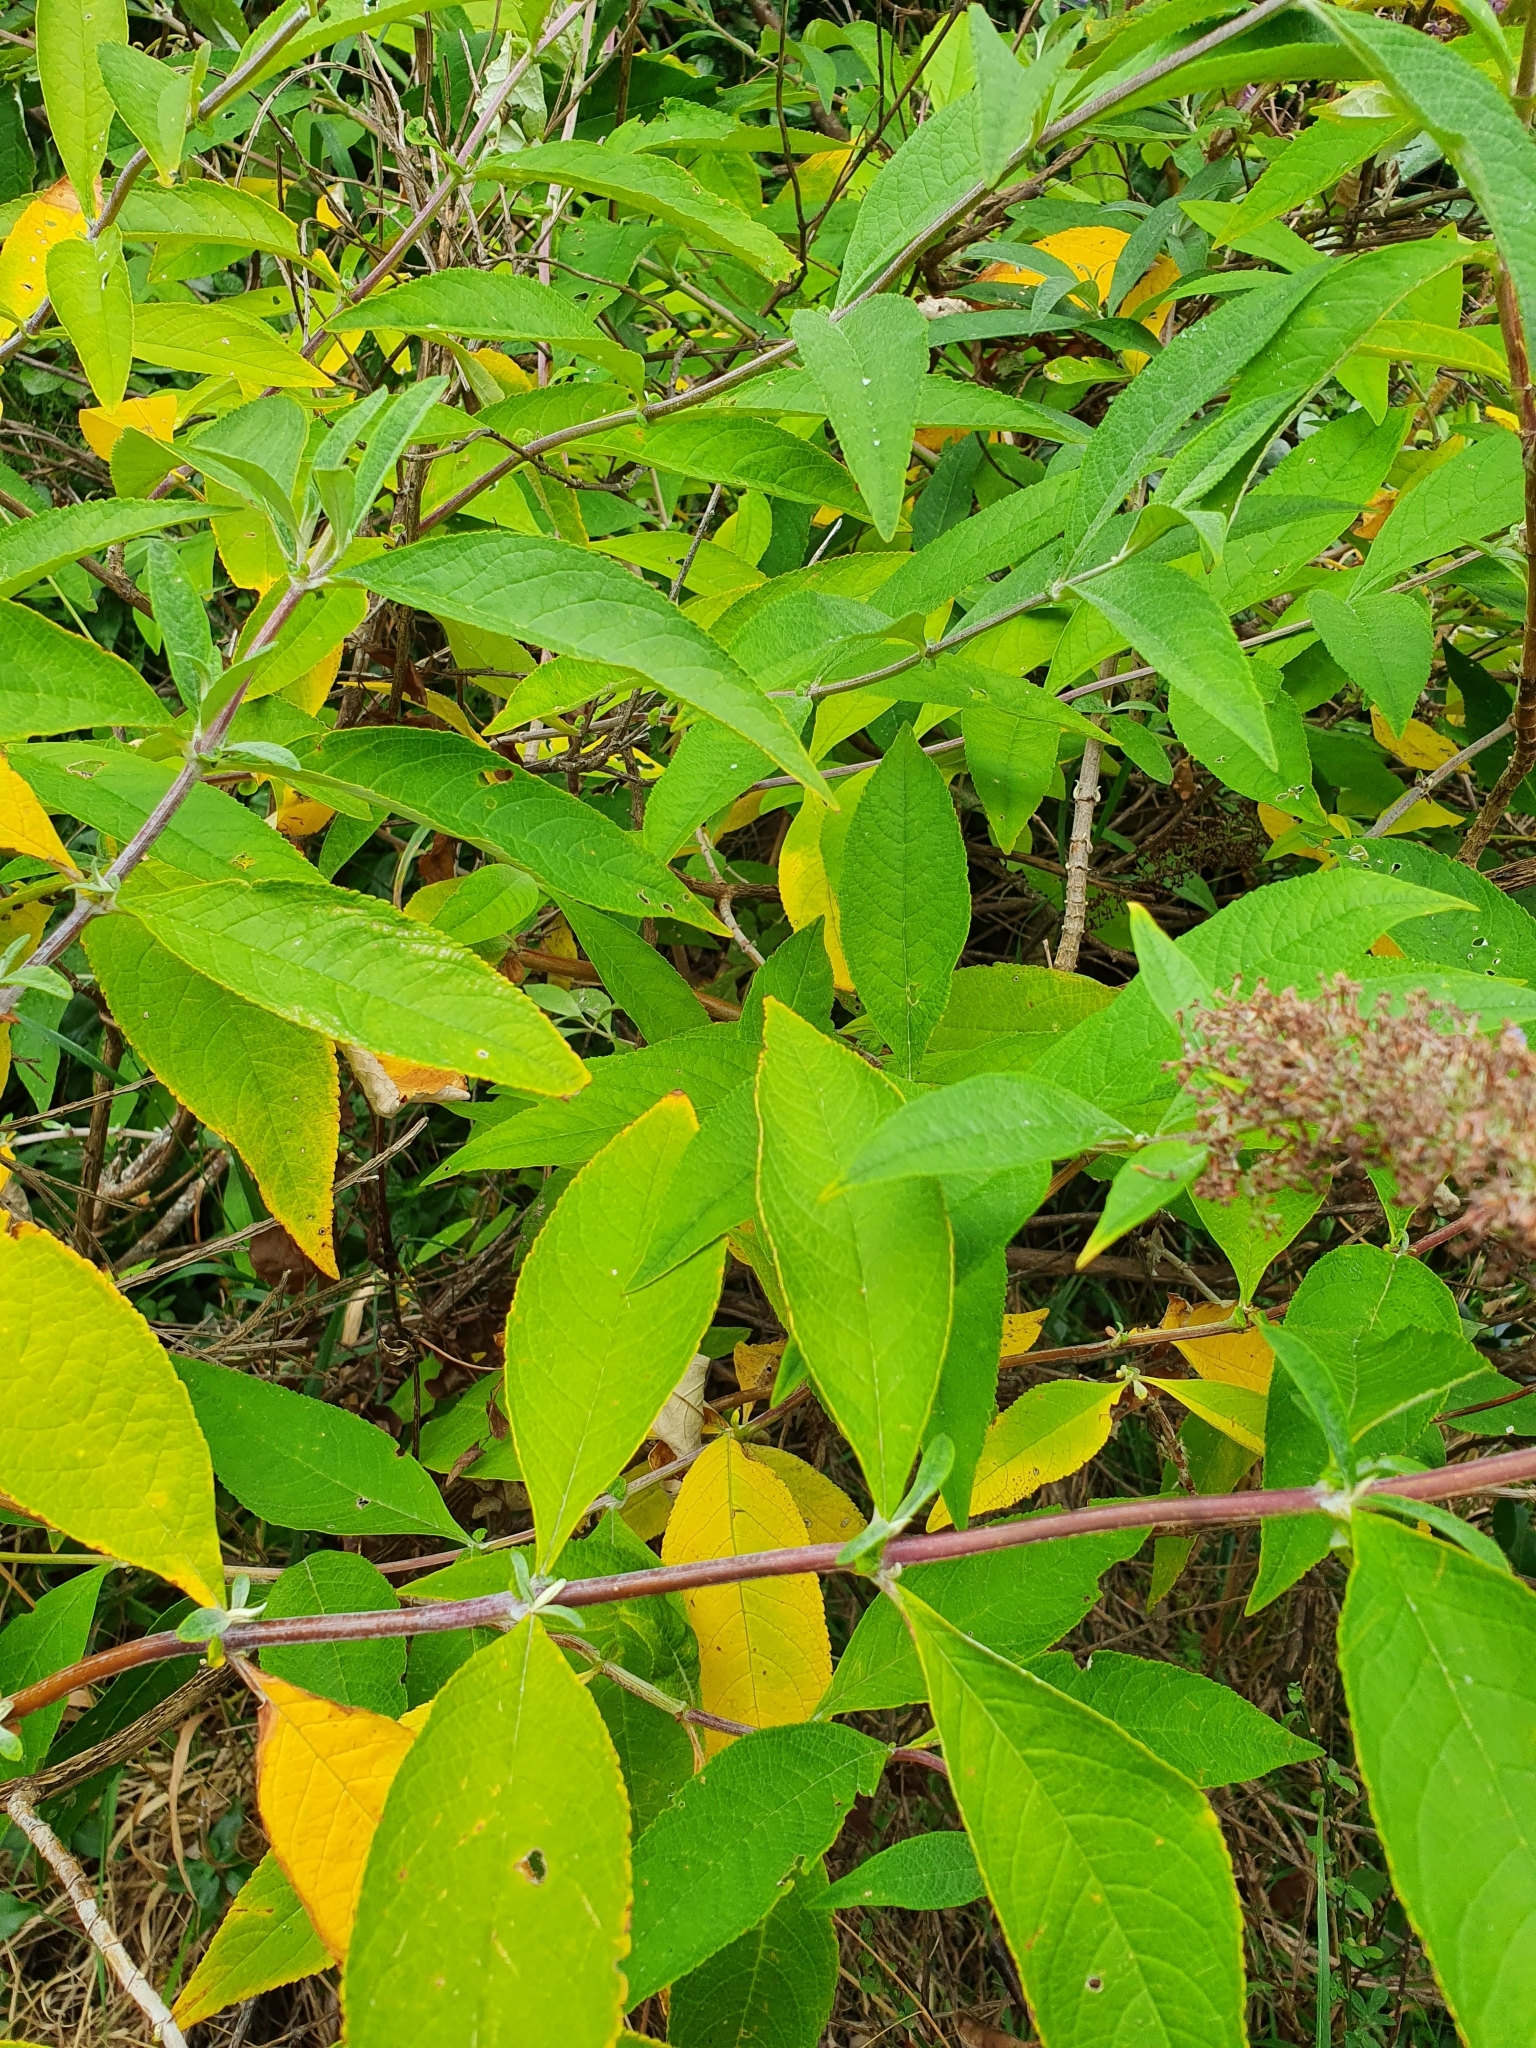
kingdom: Plantae
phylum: Tracheophyta
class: Magnoliopsida
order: Lamiales
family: Scrophulariaceae
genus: Buddleja
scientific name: Buddleja davidii
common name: Butterfly-bush
